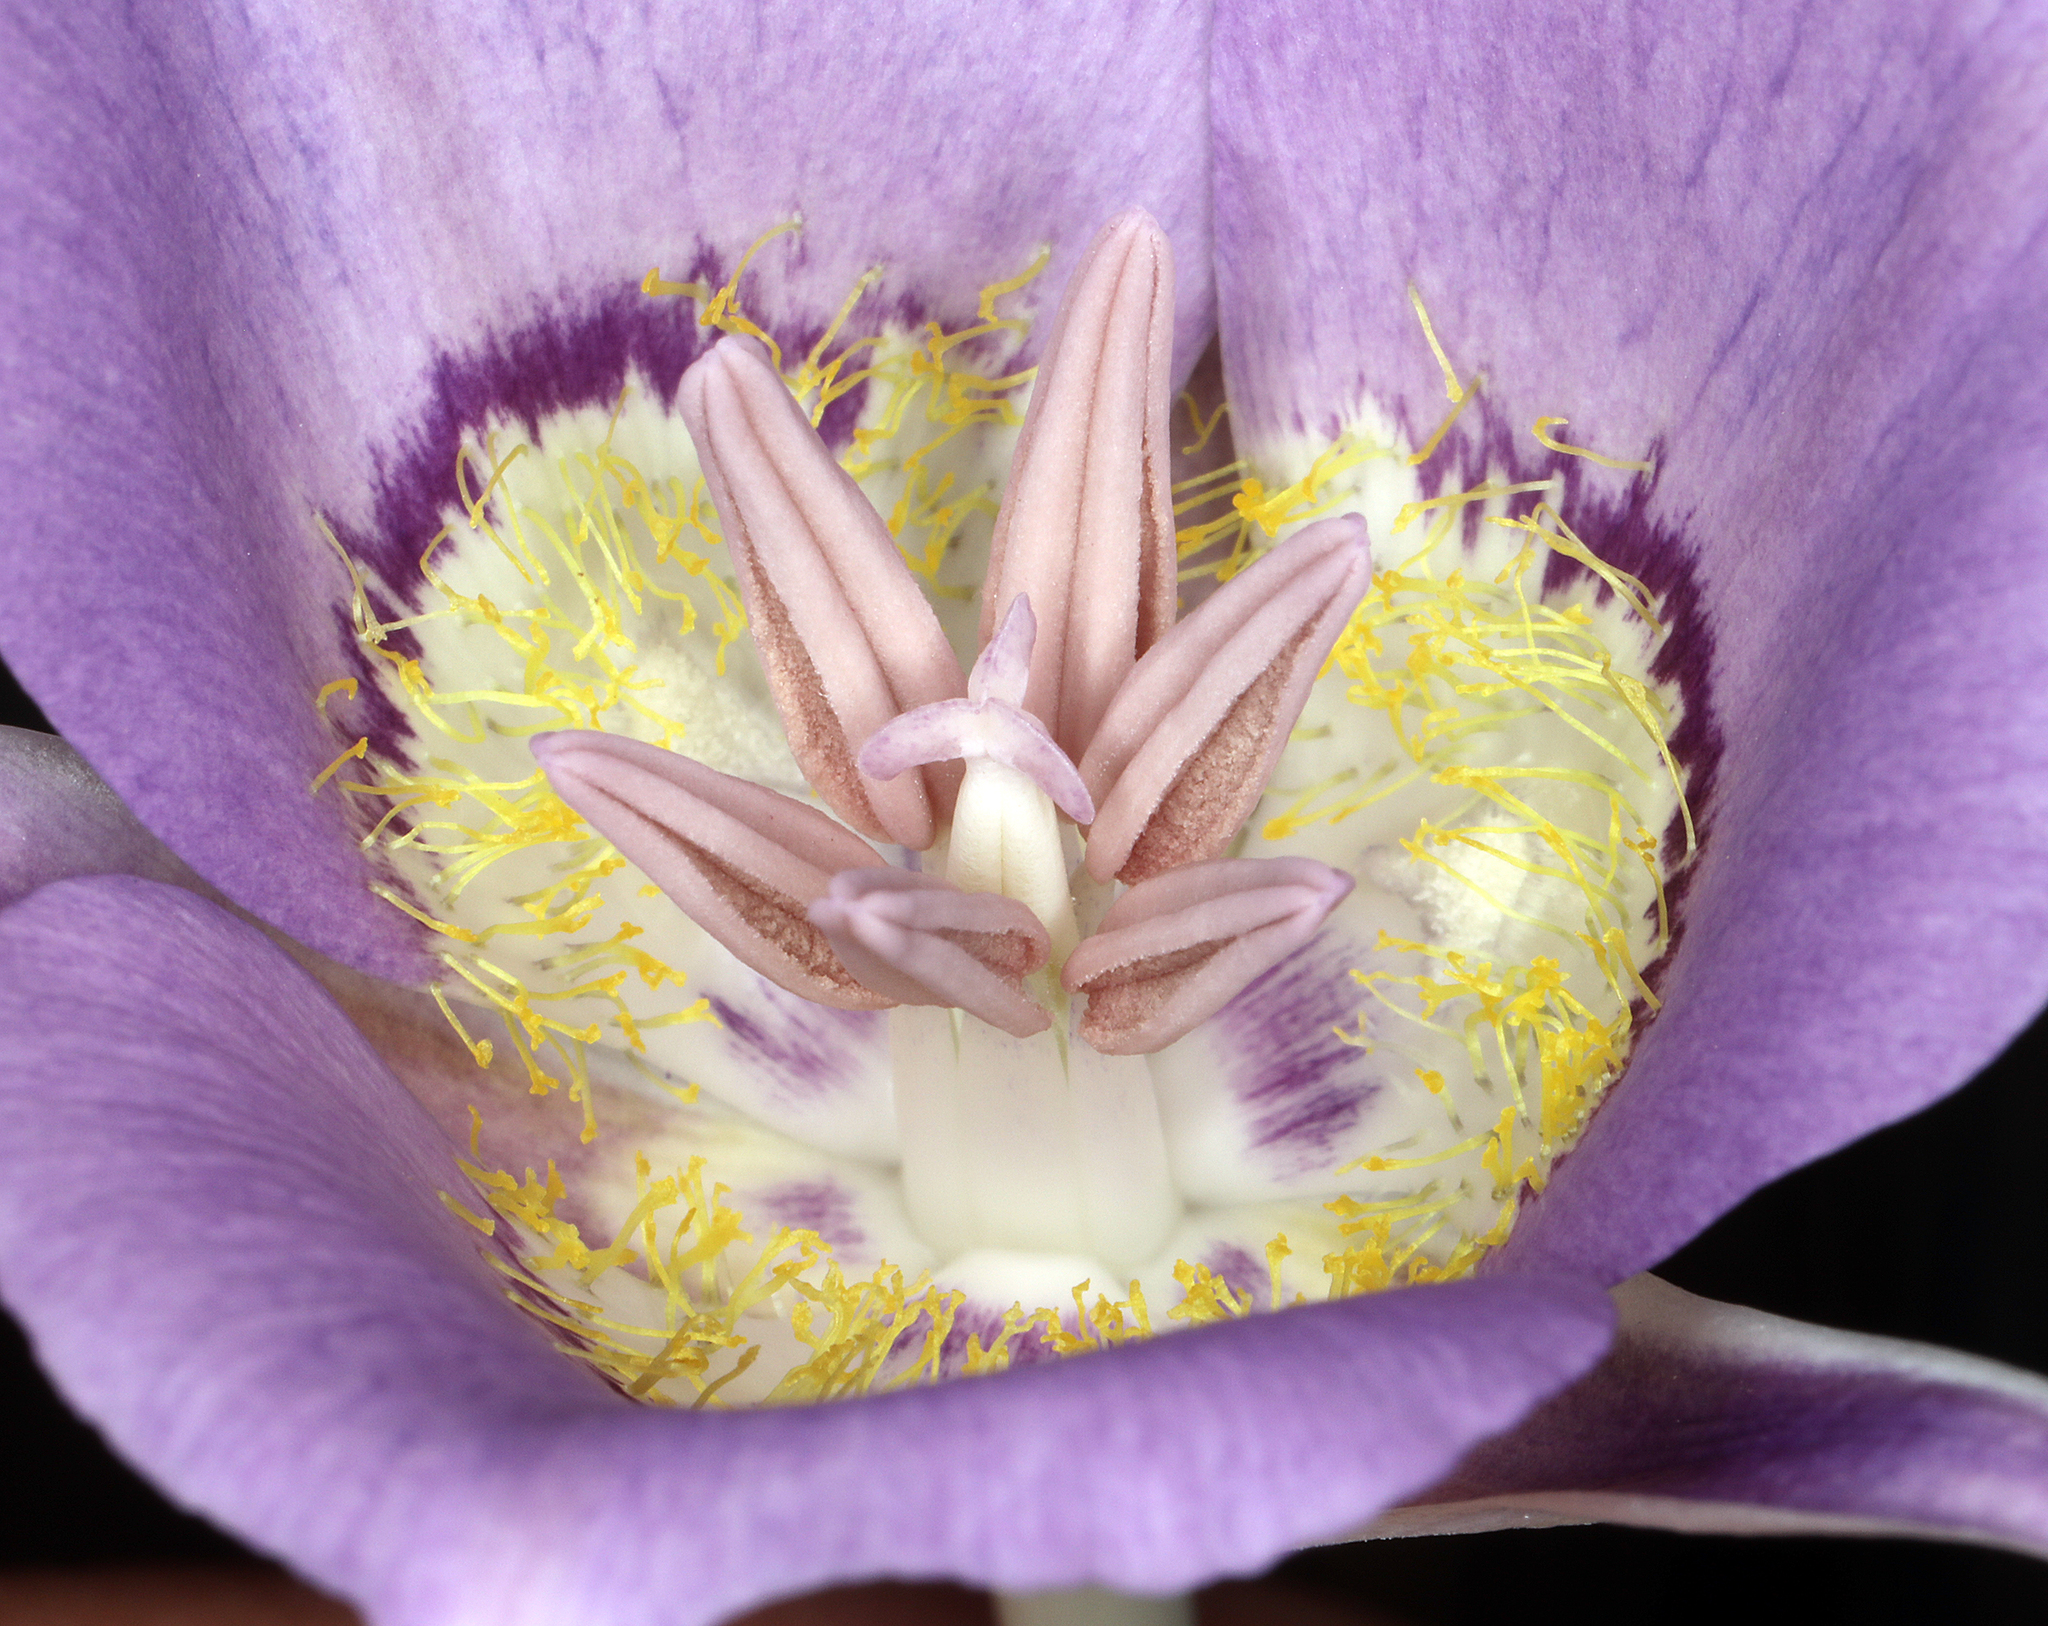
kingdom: Plantae
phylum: Tracheophyta
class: Liliopsida
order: Liliales
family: Liliaceae
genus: Calochortus
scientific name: Calochortus macrocarpus
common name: Green-band mariposa lily
